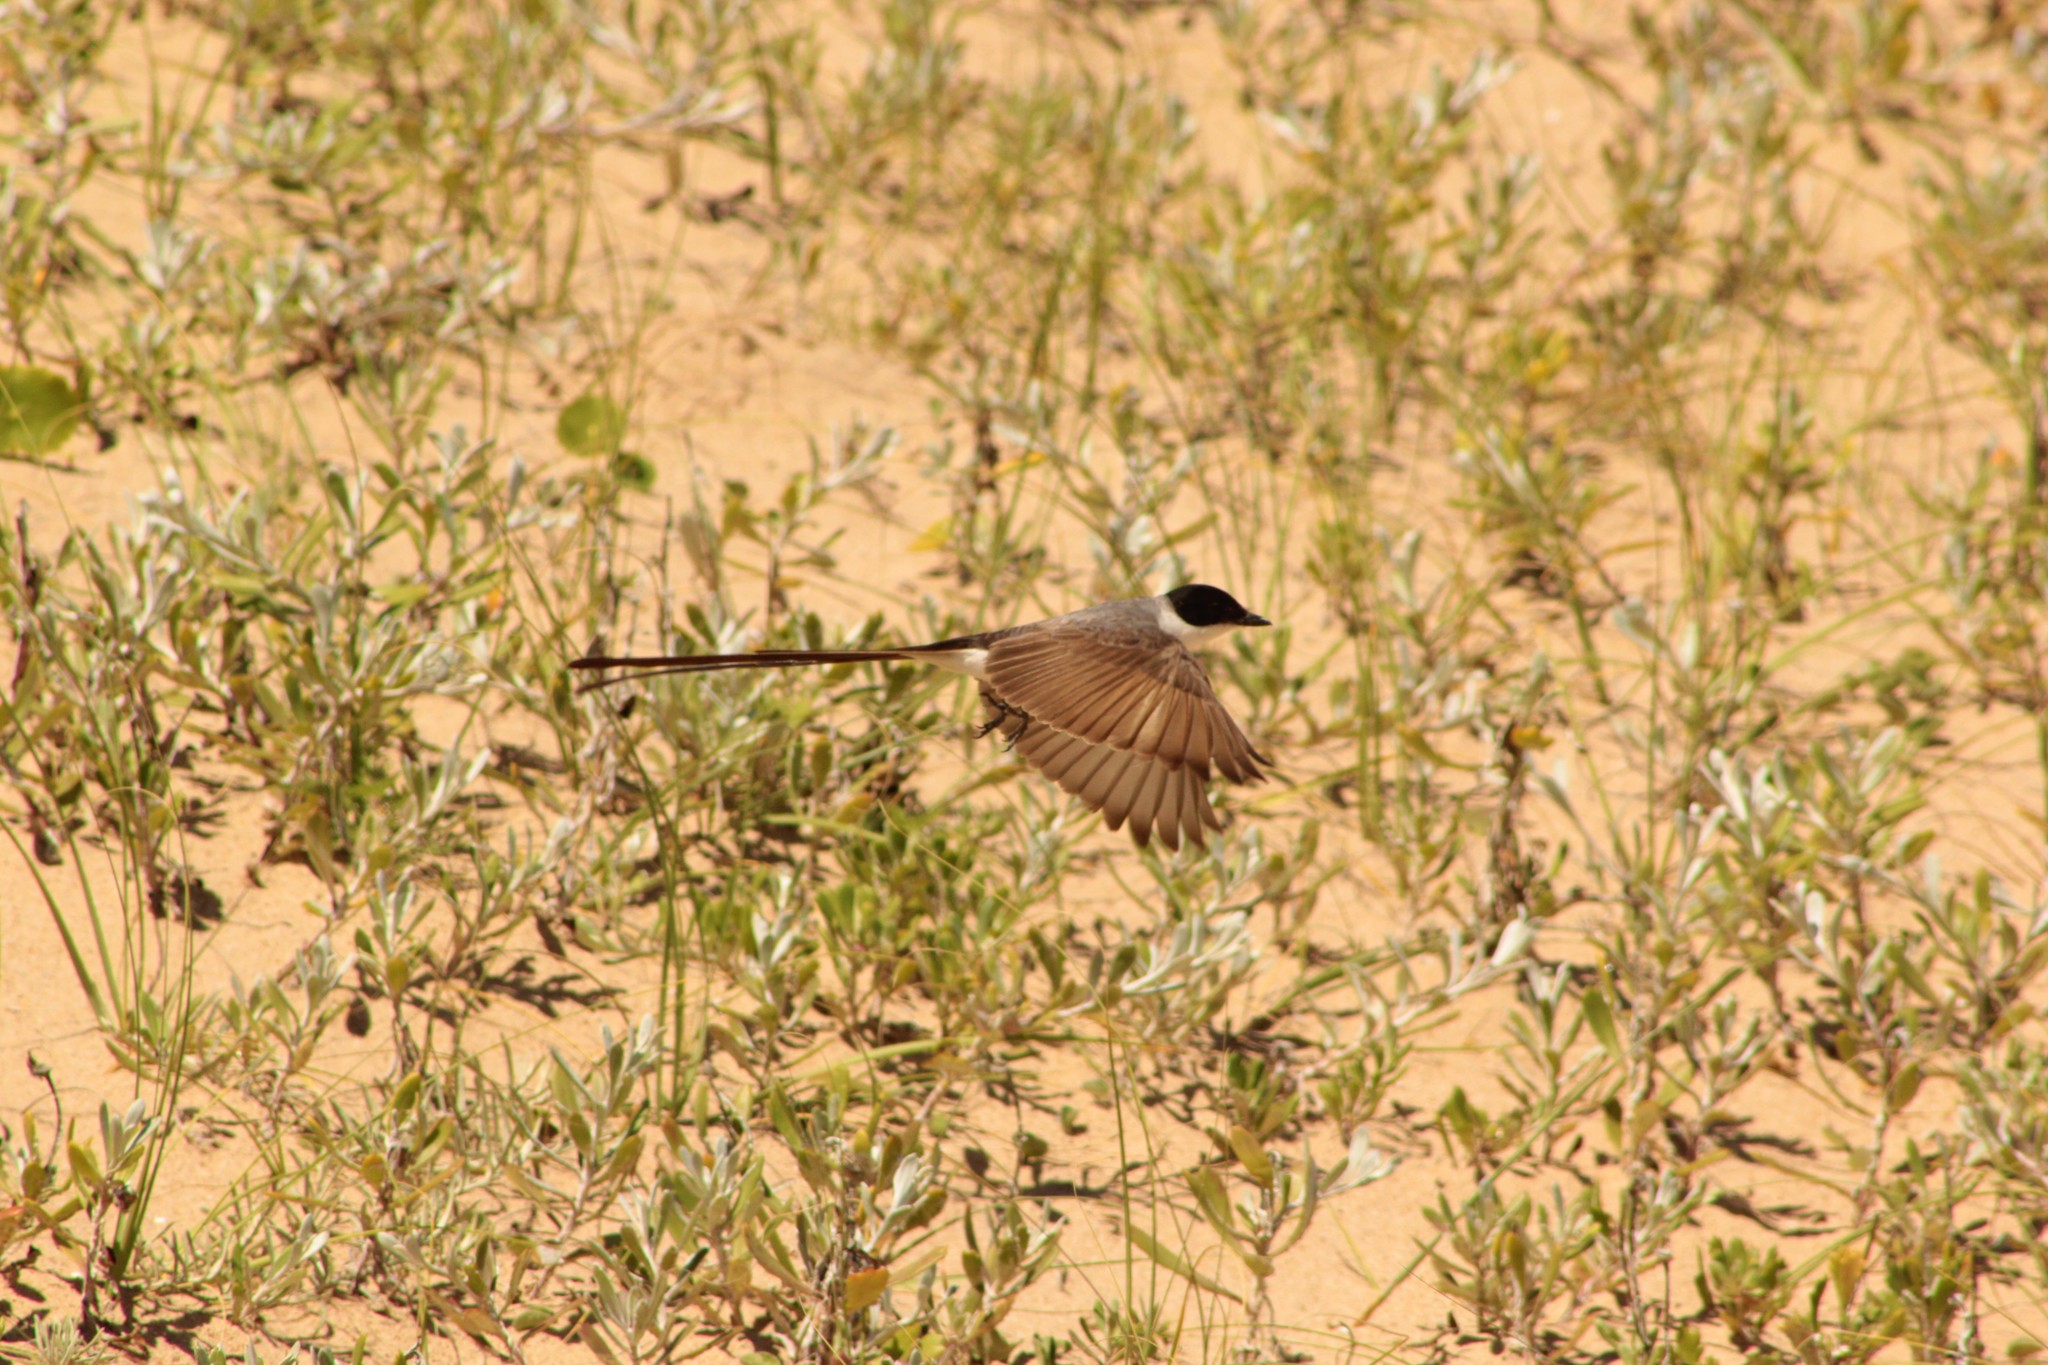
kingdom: Animalia
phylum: Chordata
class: Aves
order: Passeriformes
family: Tyrannidae
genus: Tyrannus
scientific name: Tyrannus savana
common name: Fork-tailed flycatcher
